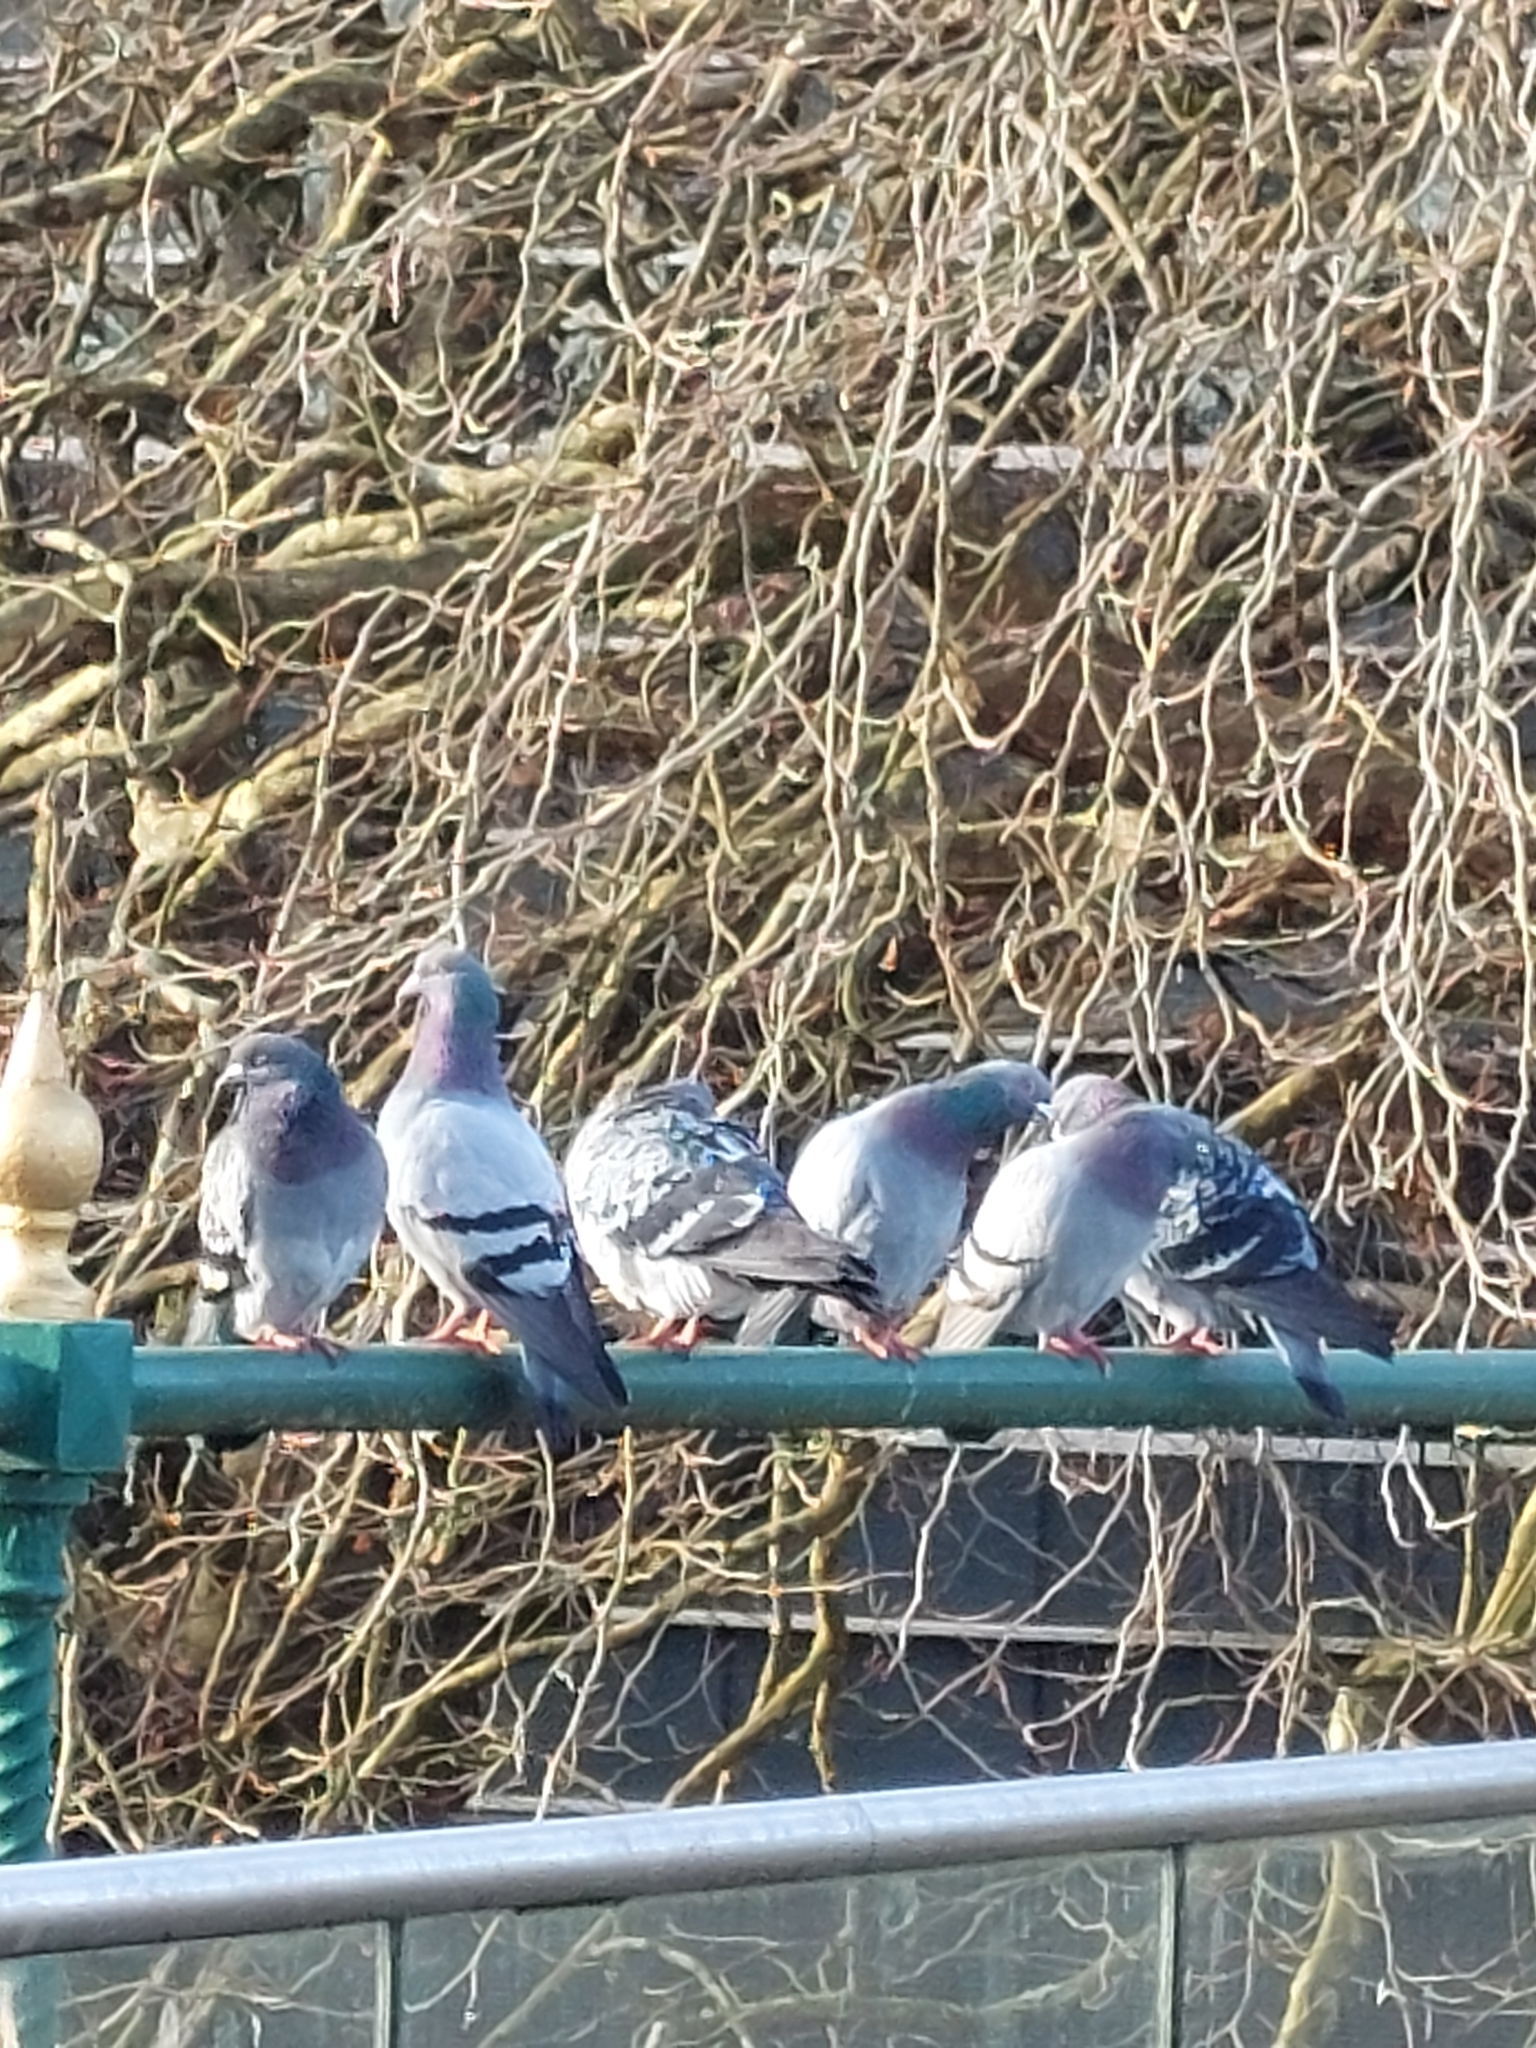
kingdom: Animalia
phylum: Chordata
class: Aves
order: Columbiformes
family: Columbidae
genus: Columba
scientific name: Columba livia
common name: Rock pigeon
